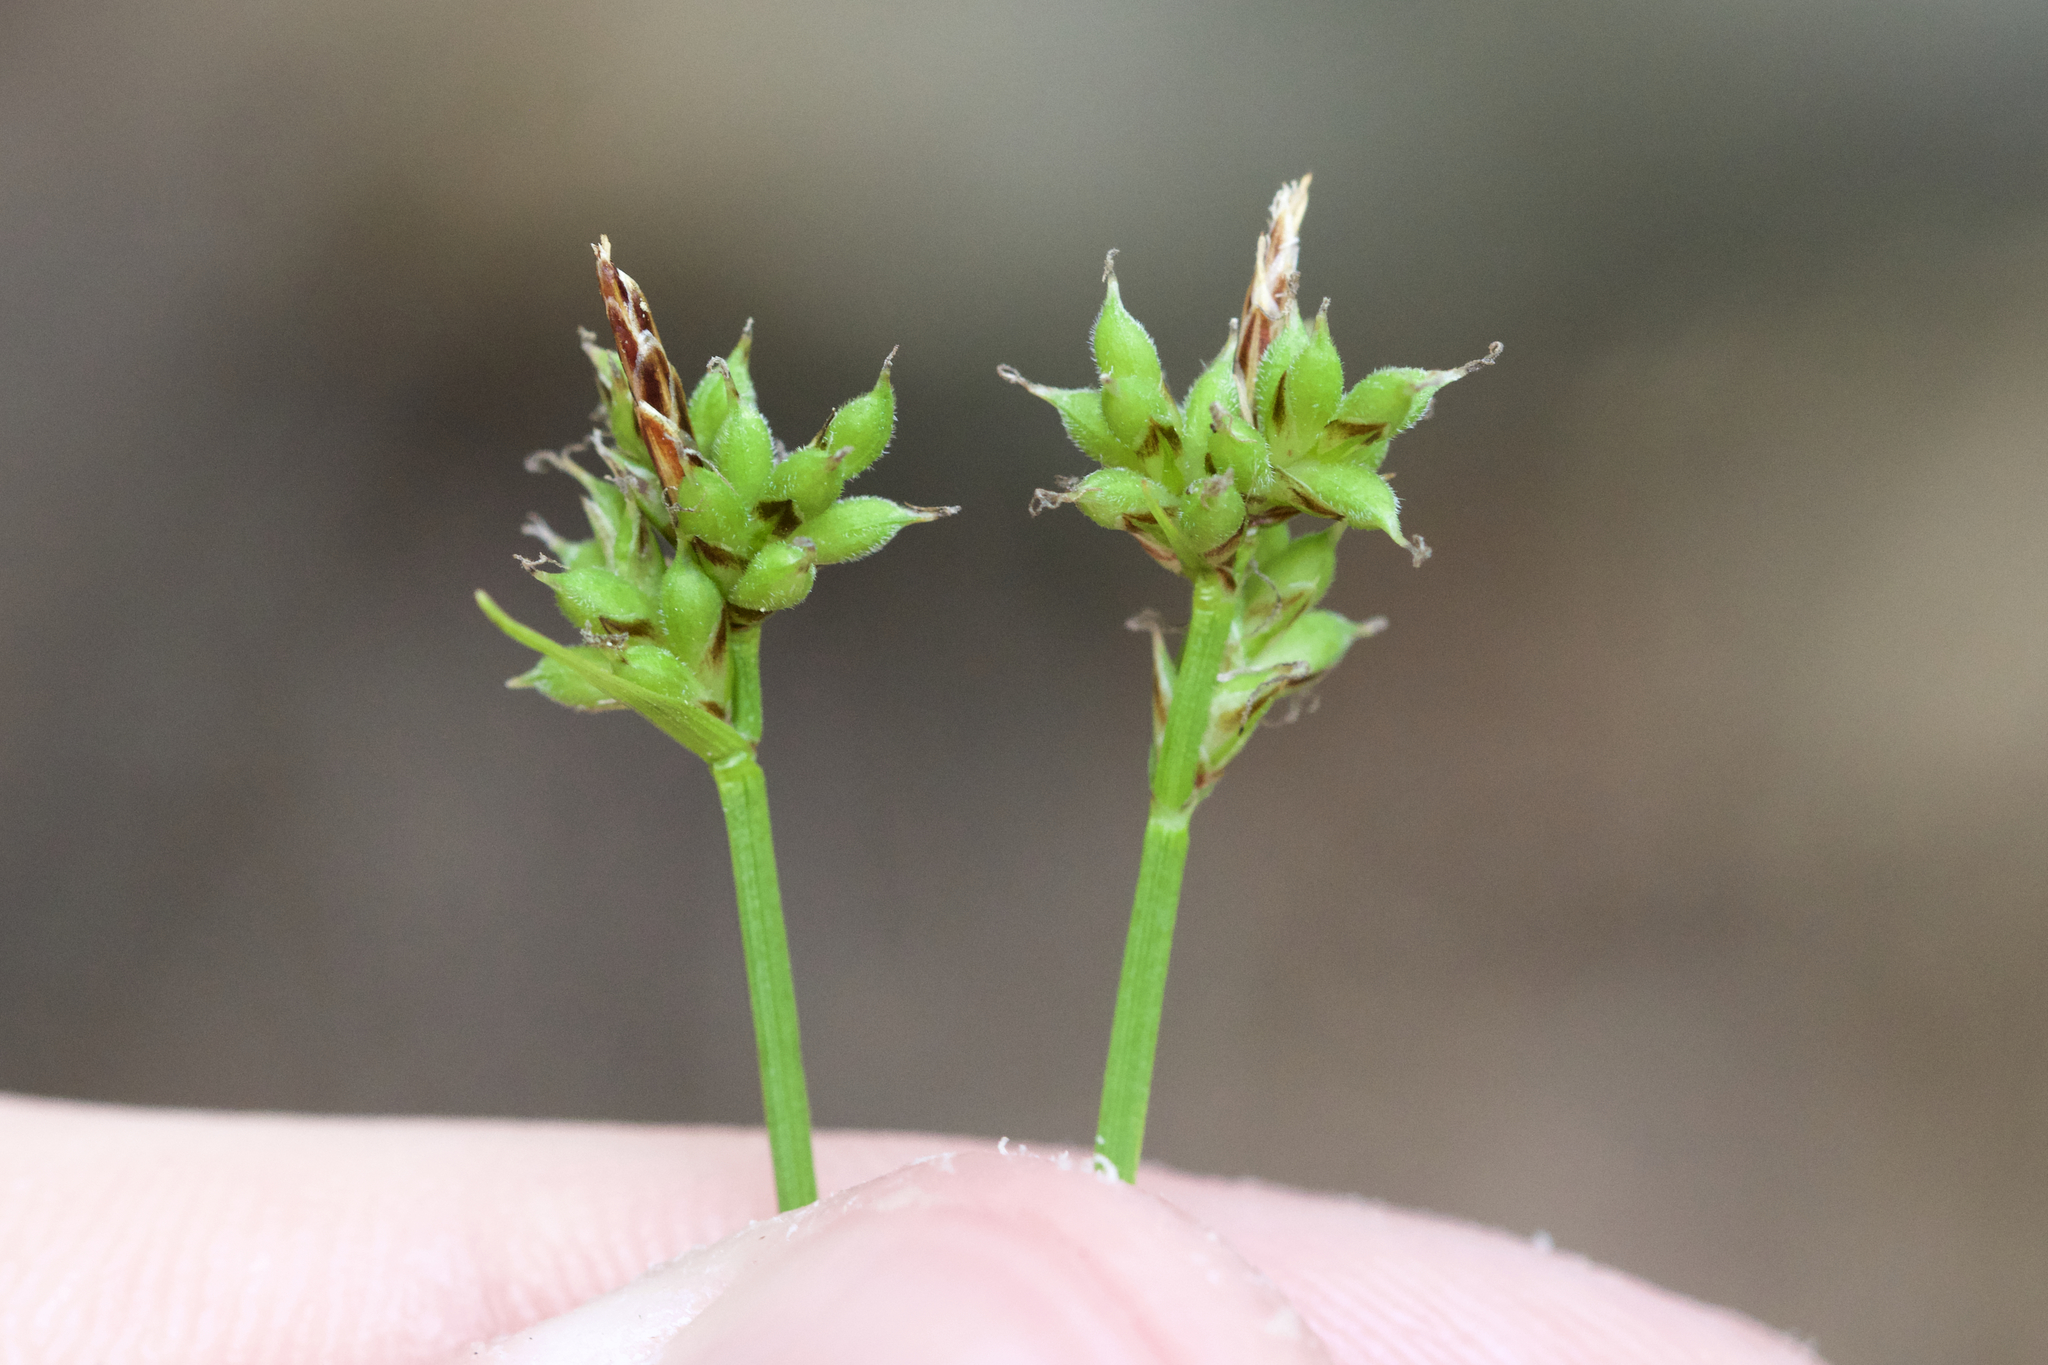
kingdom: Plantae
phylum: Tracheophyta
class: Liliopsida
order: Poales
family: Cyperaceae
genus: Carex
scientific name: Carex peckii
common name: Peck's oak sedge
